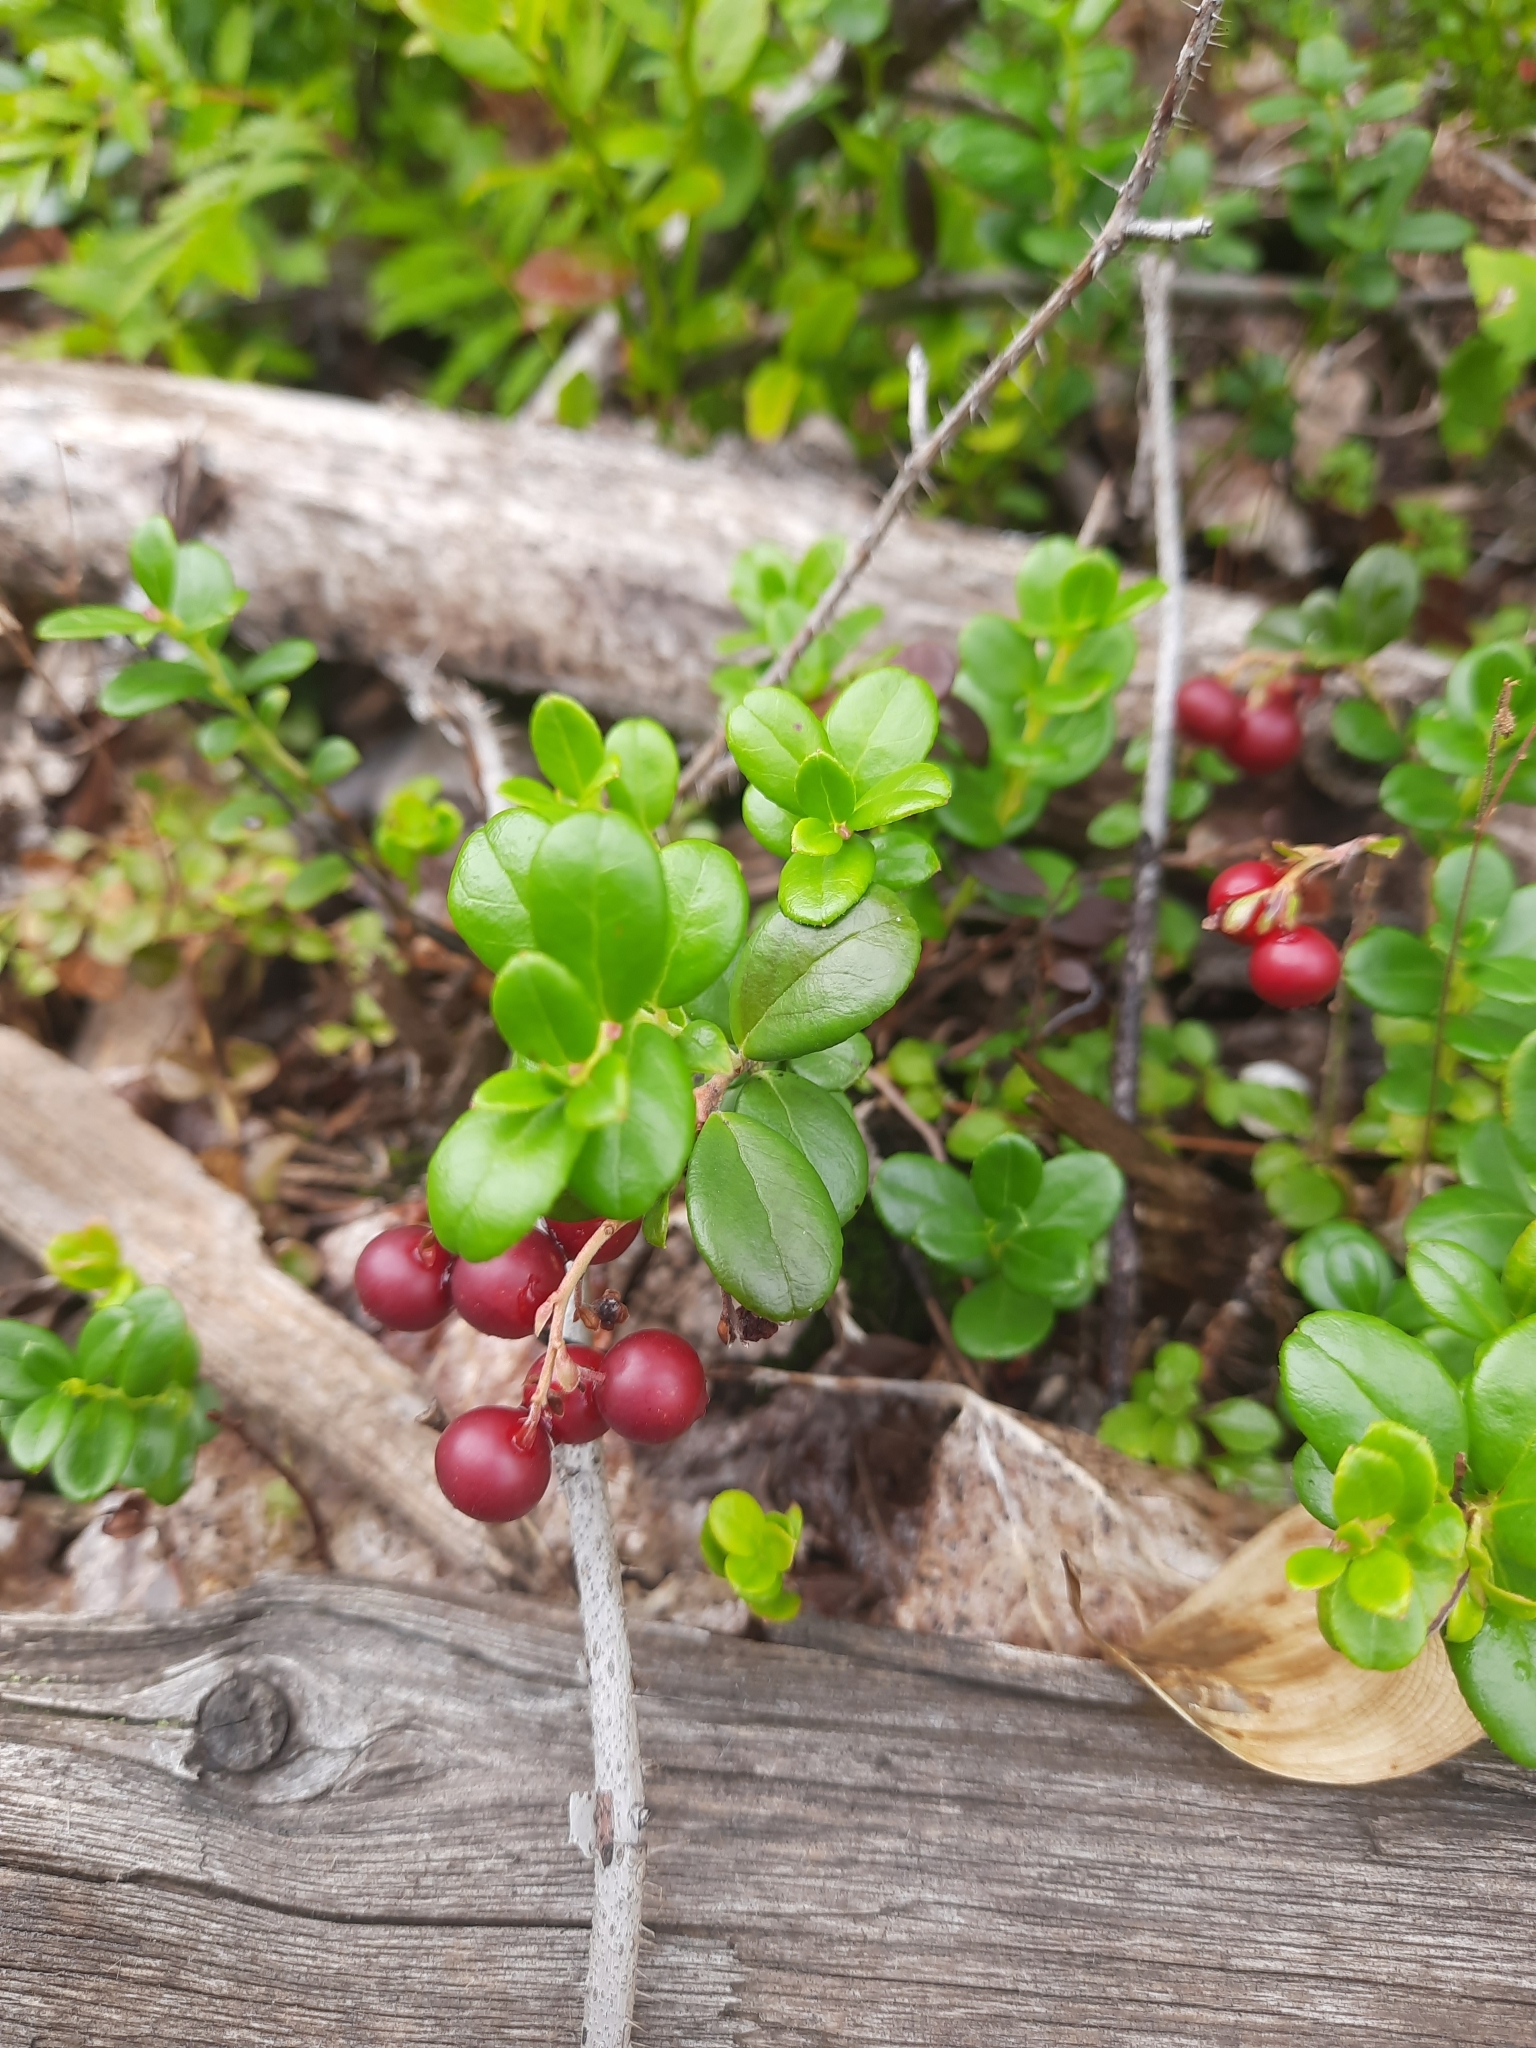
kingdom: Plantae
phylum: Tracheophyta
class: Magnoliopsida
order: Ericales
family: Ericaceae
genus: Vaccinium
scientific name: Vaccinium vitis-idaea
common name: Cowberry
